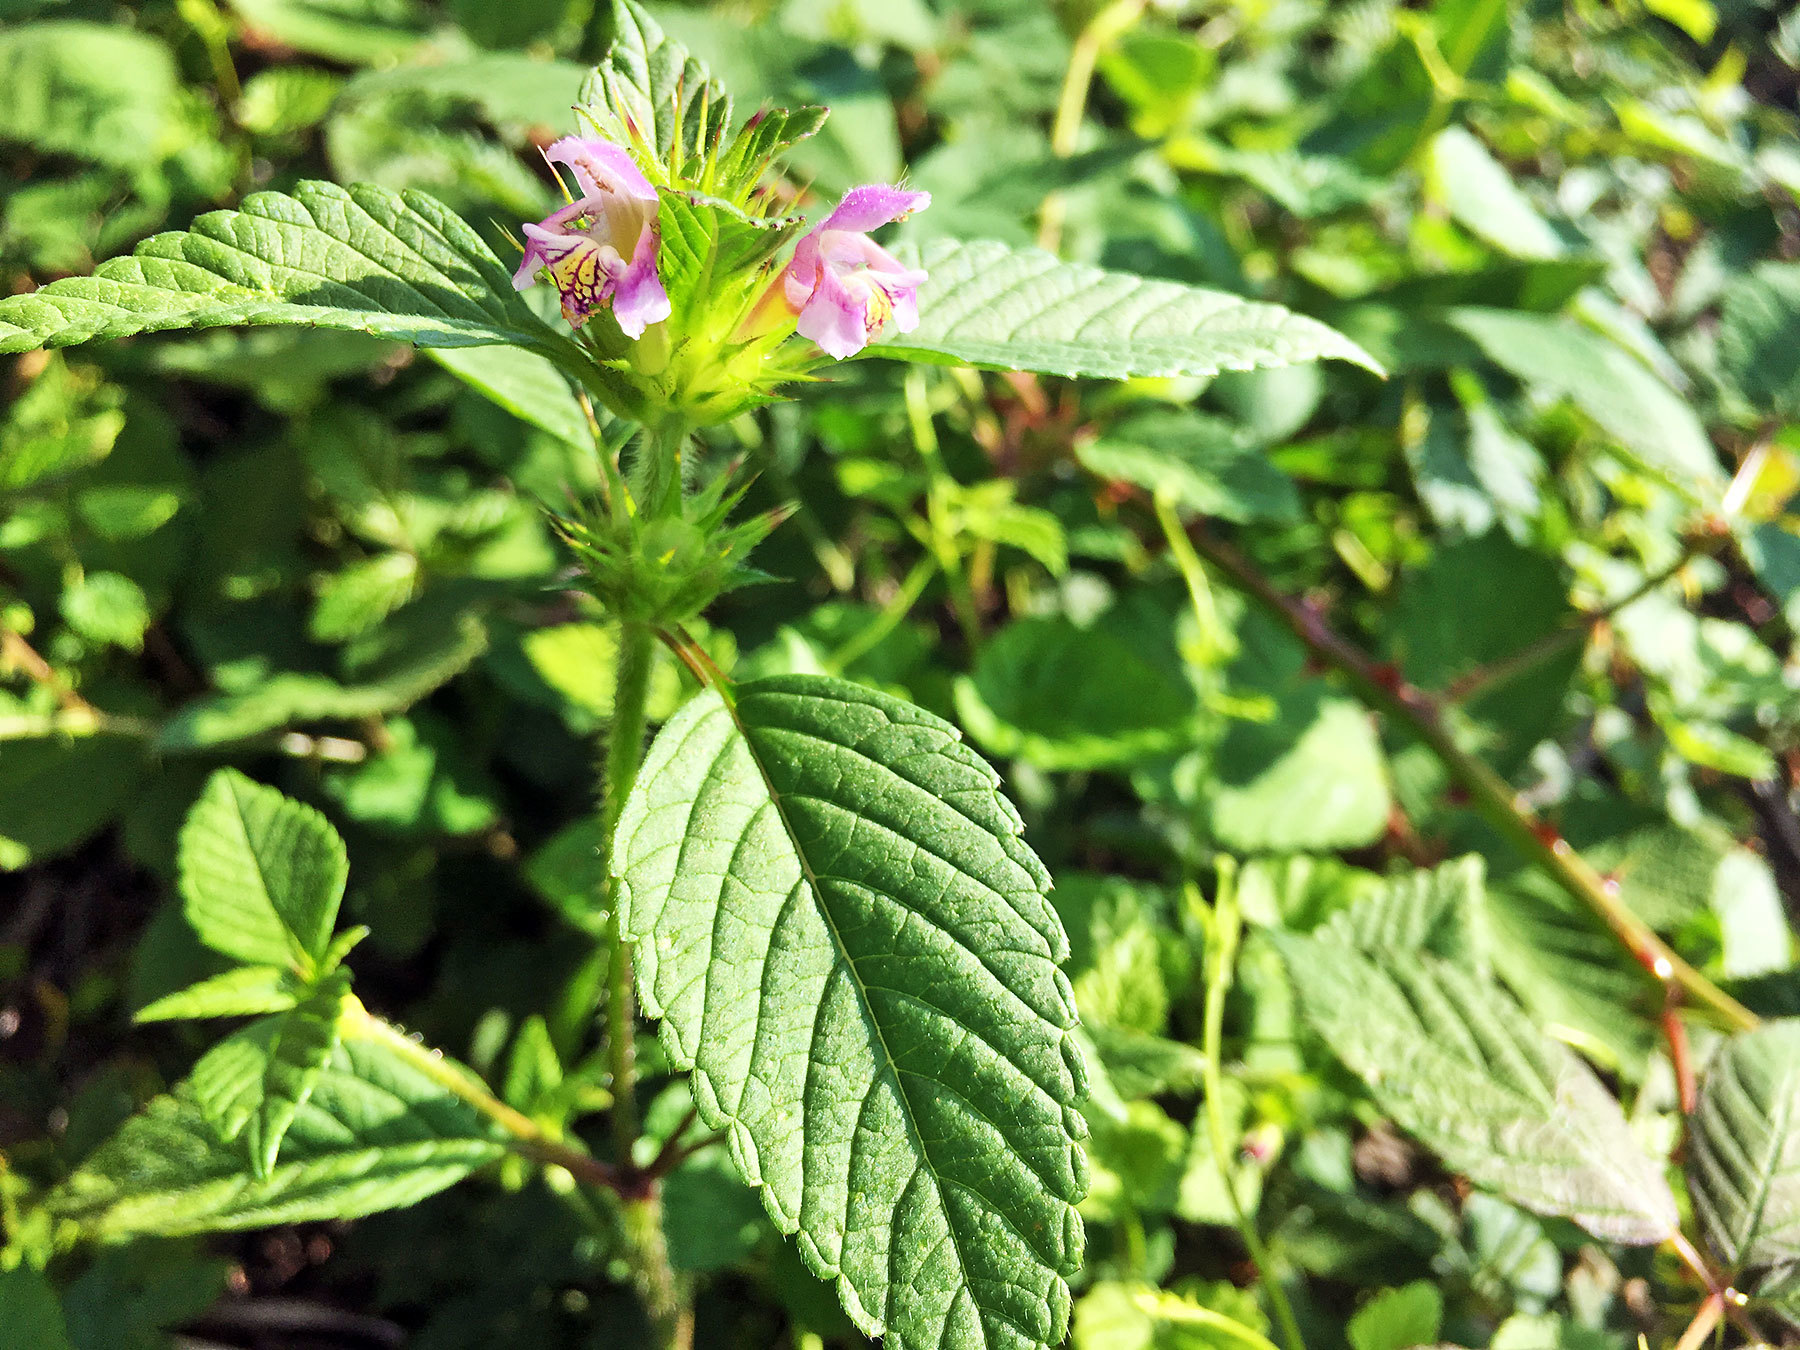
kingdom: Plantae
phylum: Tracheophyta
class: Magnoliopsida
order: Lamiales
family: Lamiaceae
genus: Galeopsis
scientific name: Galeopsis tetrahit
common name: Common hemp-nettle
